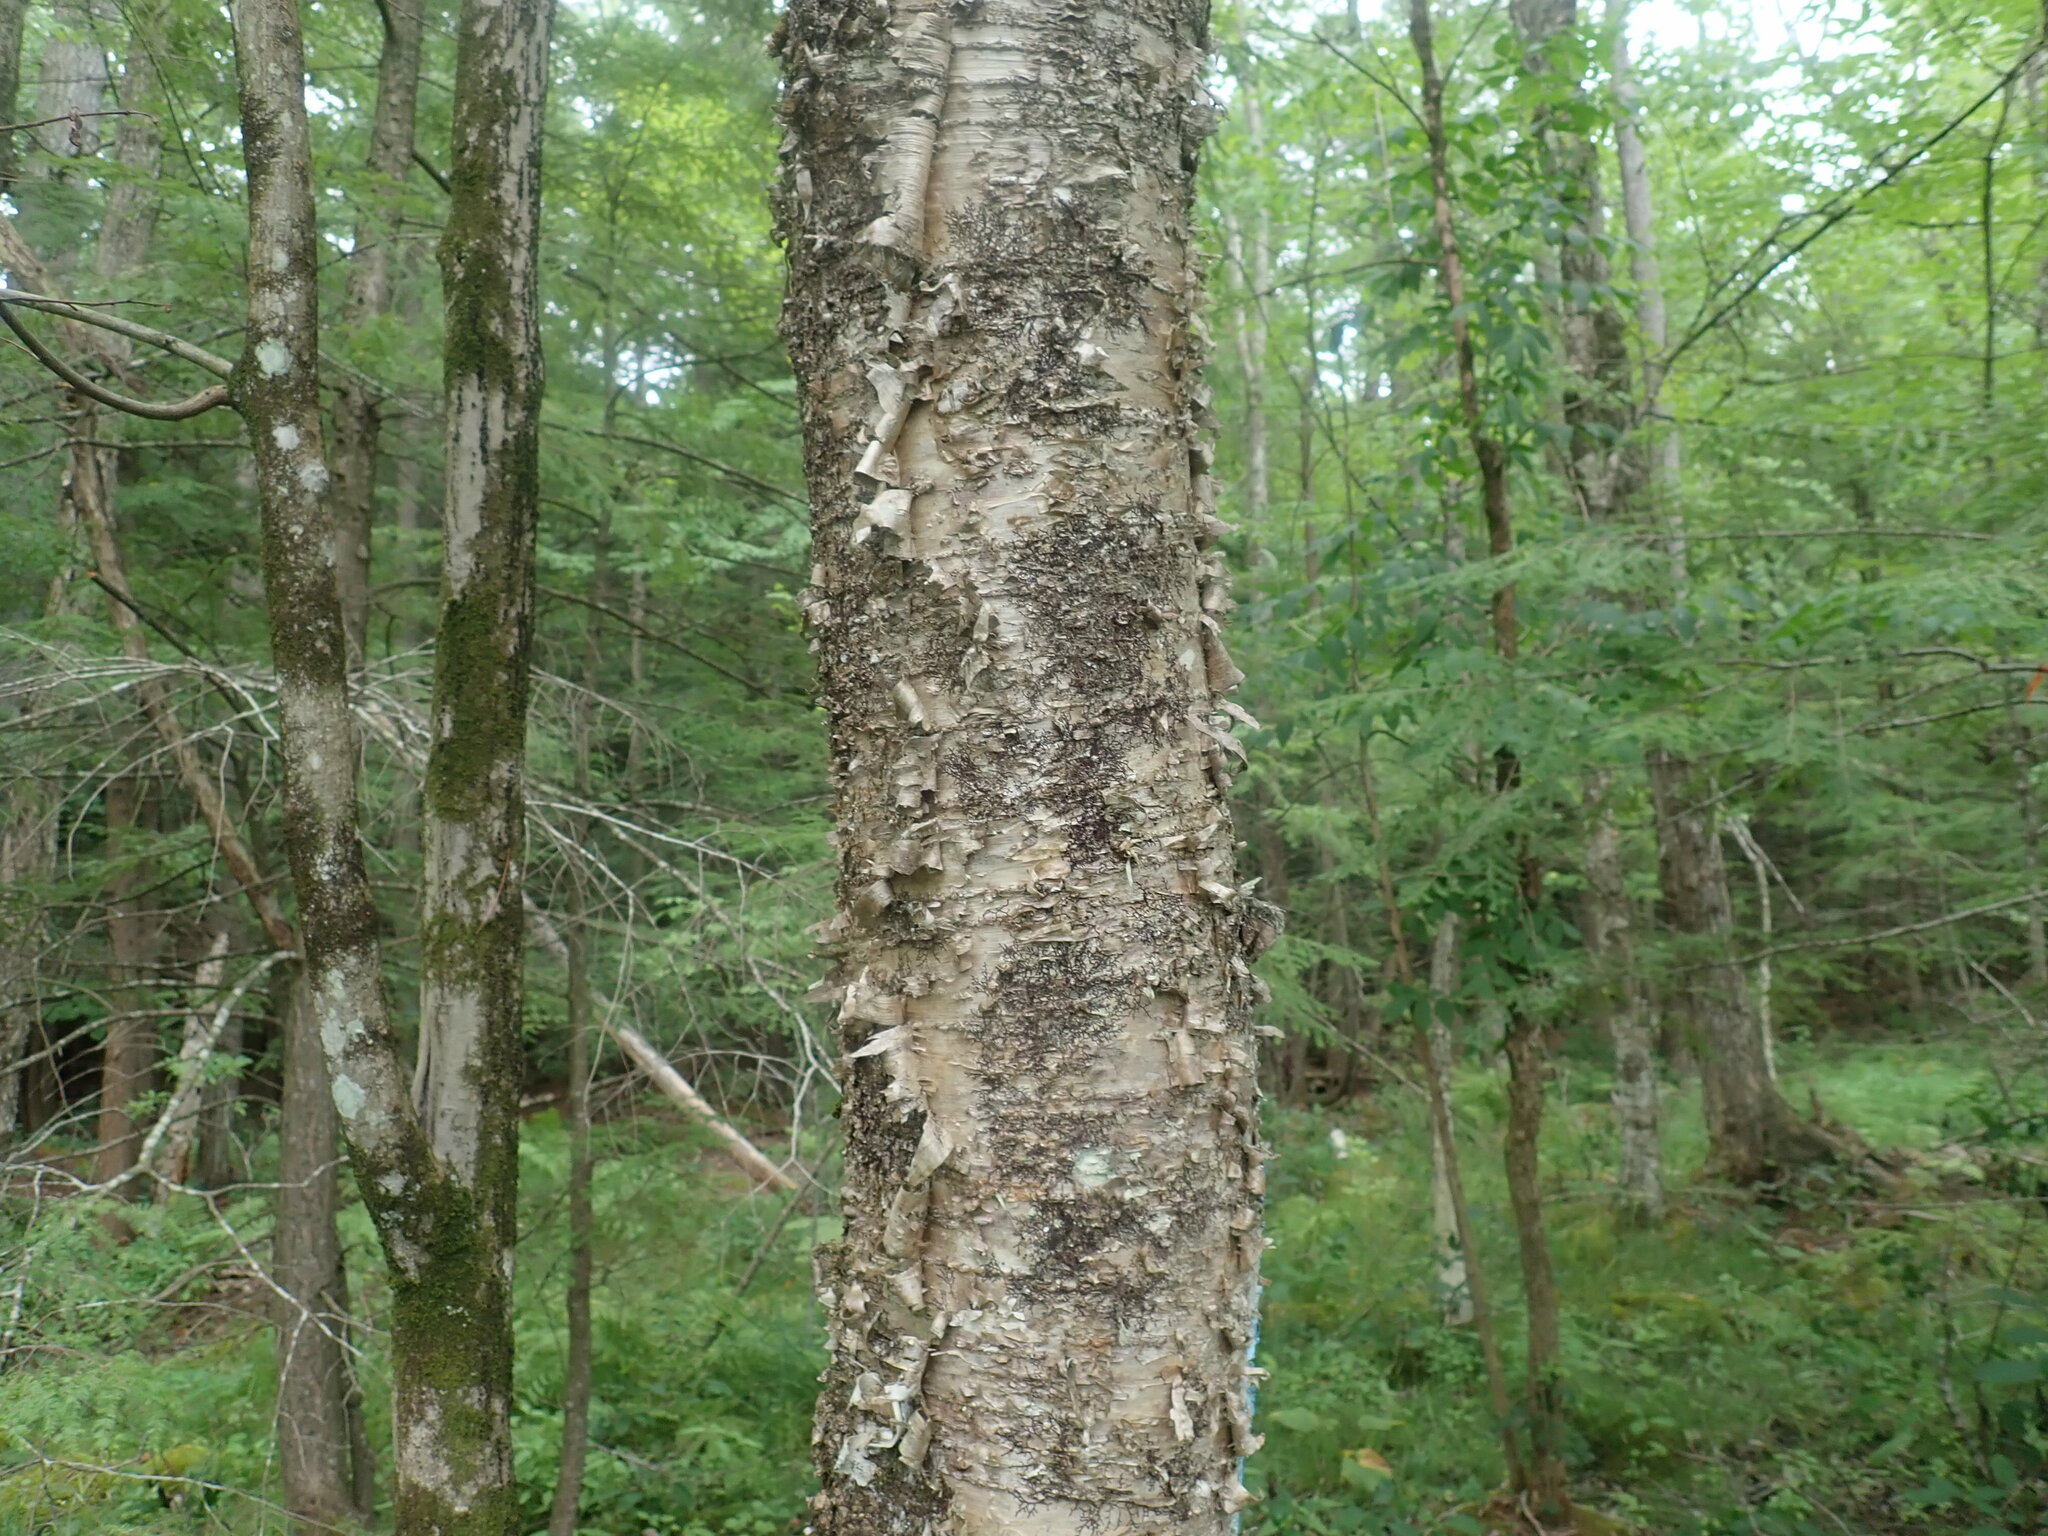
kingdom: Plantae
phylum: Tracheophyta
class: Magnoliopsida
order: Fagales
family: Betulaceae
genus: Betula
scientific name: Betula alleghaniensis
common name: Yellow birch
